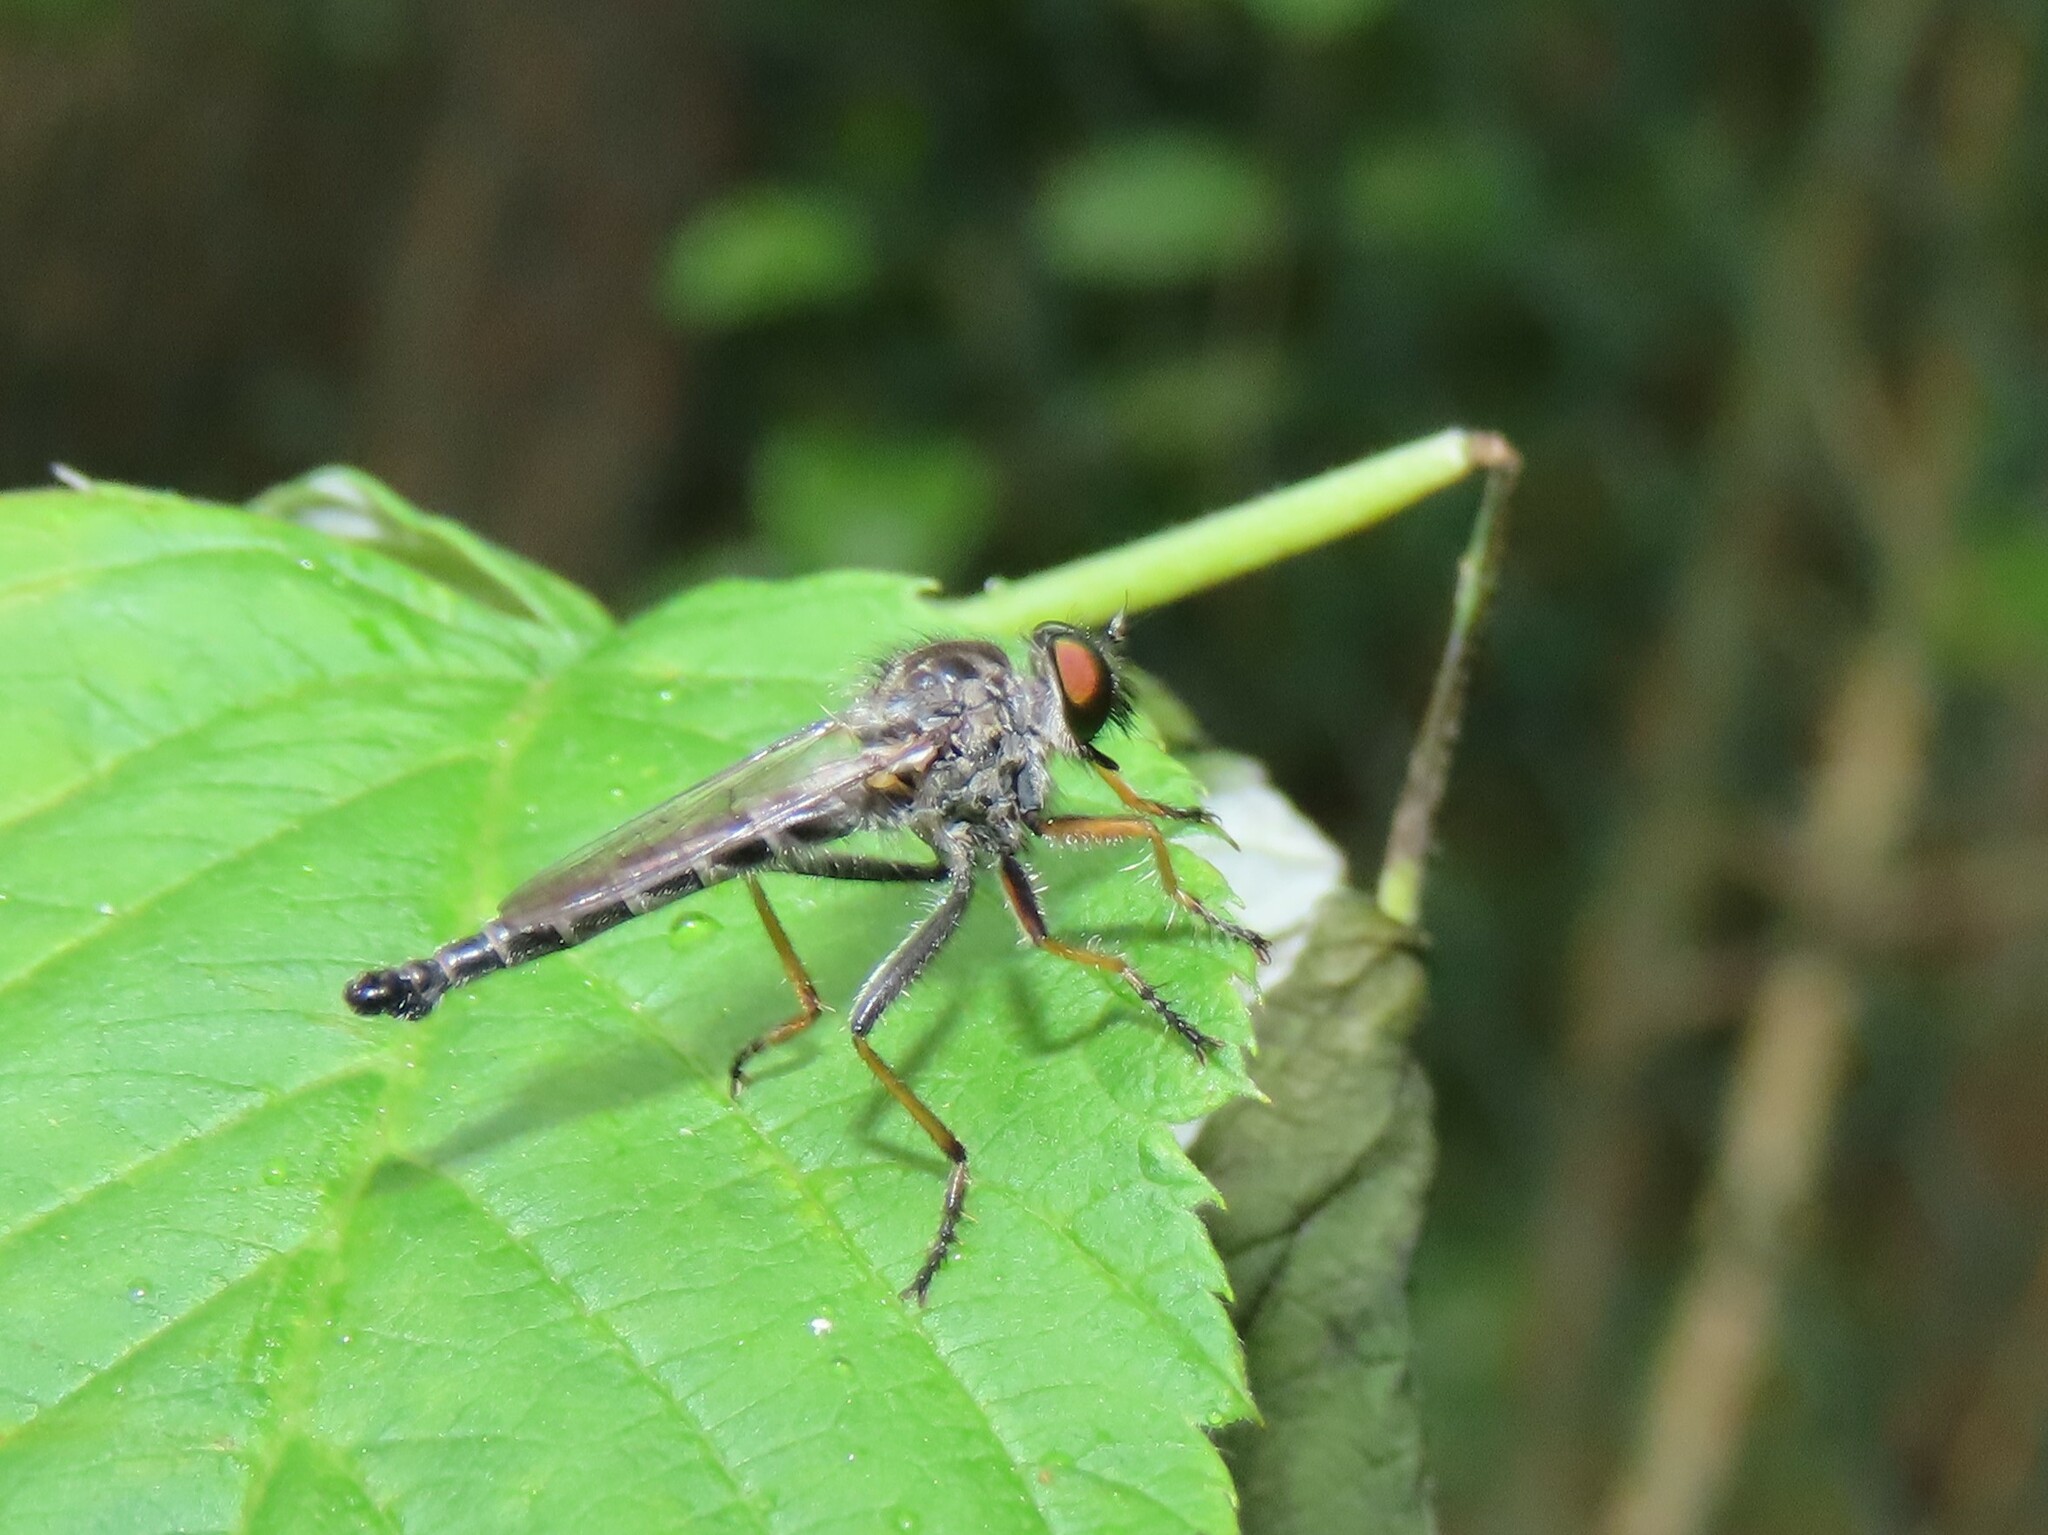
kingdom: Animalia
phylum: Arthropoda
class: Insecta
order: Diptera
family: Asilidae
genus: Asilus
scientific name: Asilus flavofemoratus
